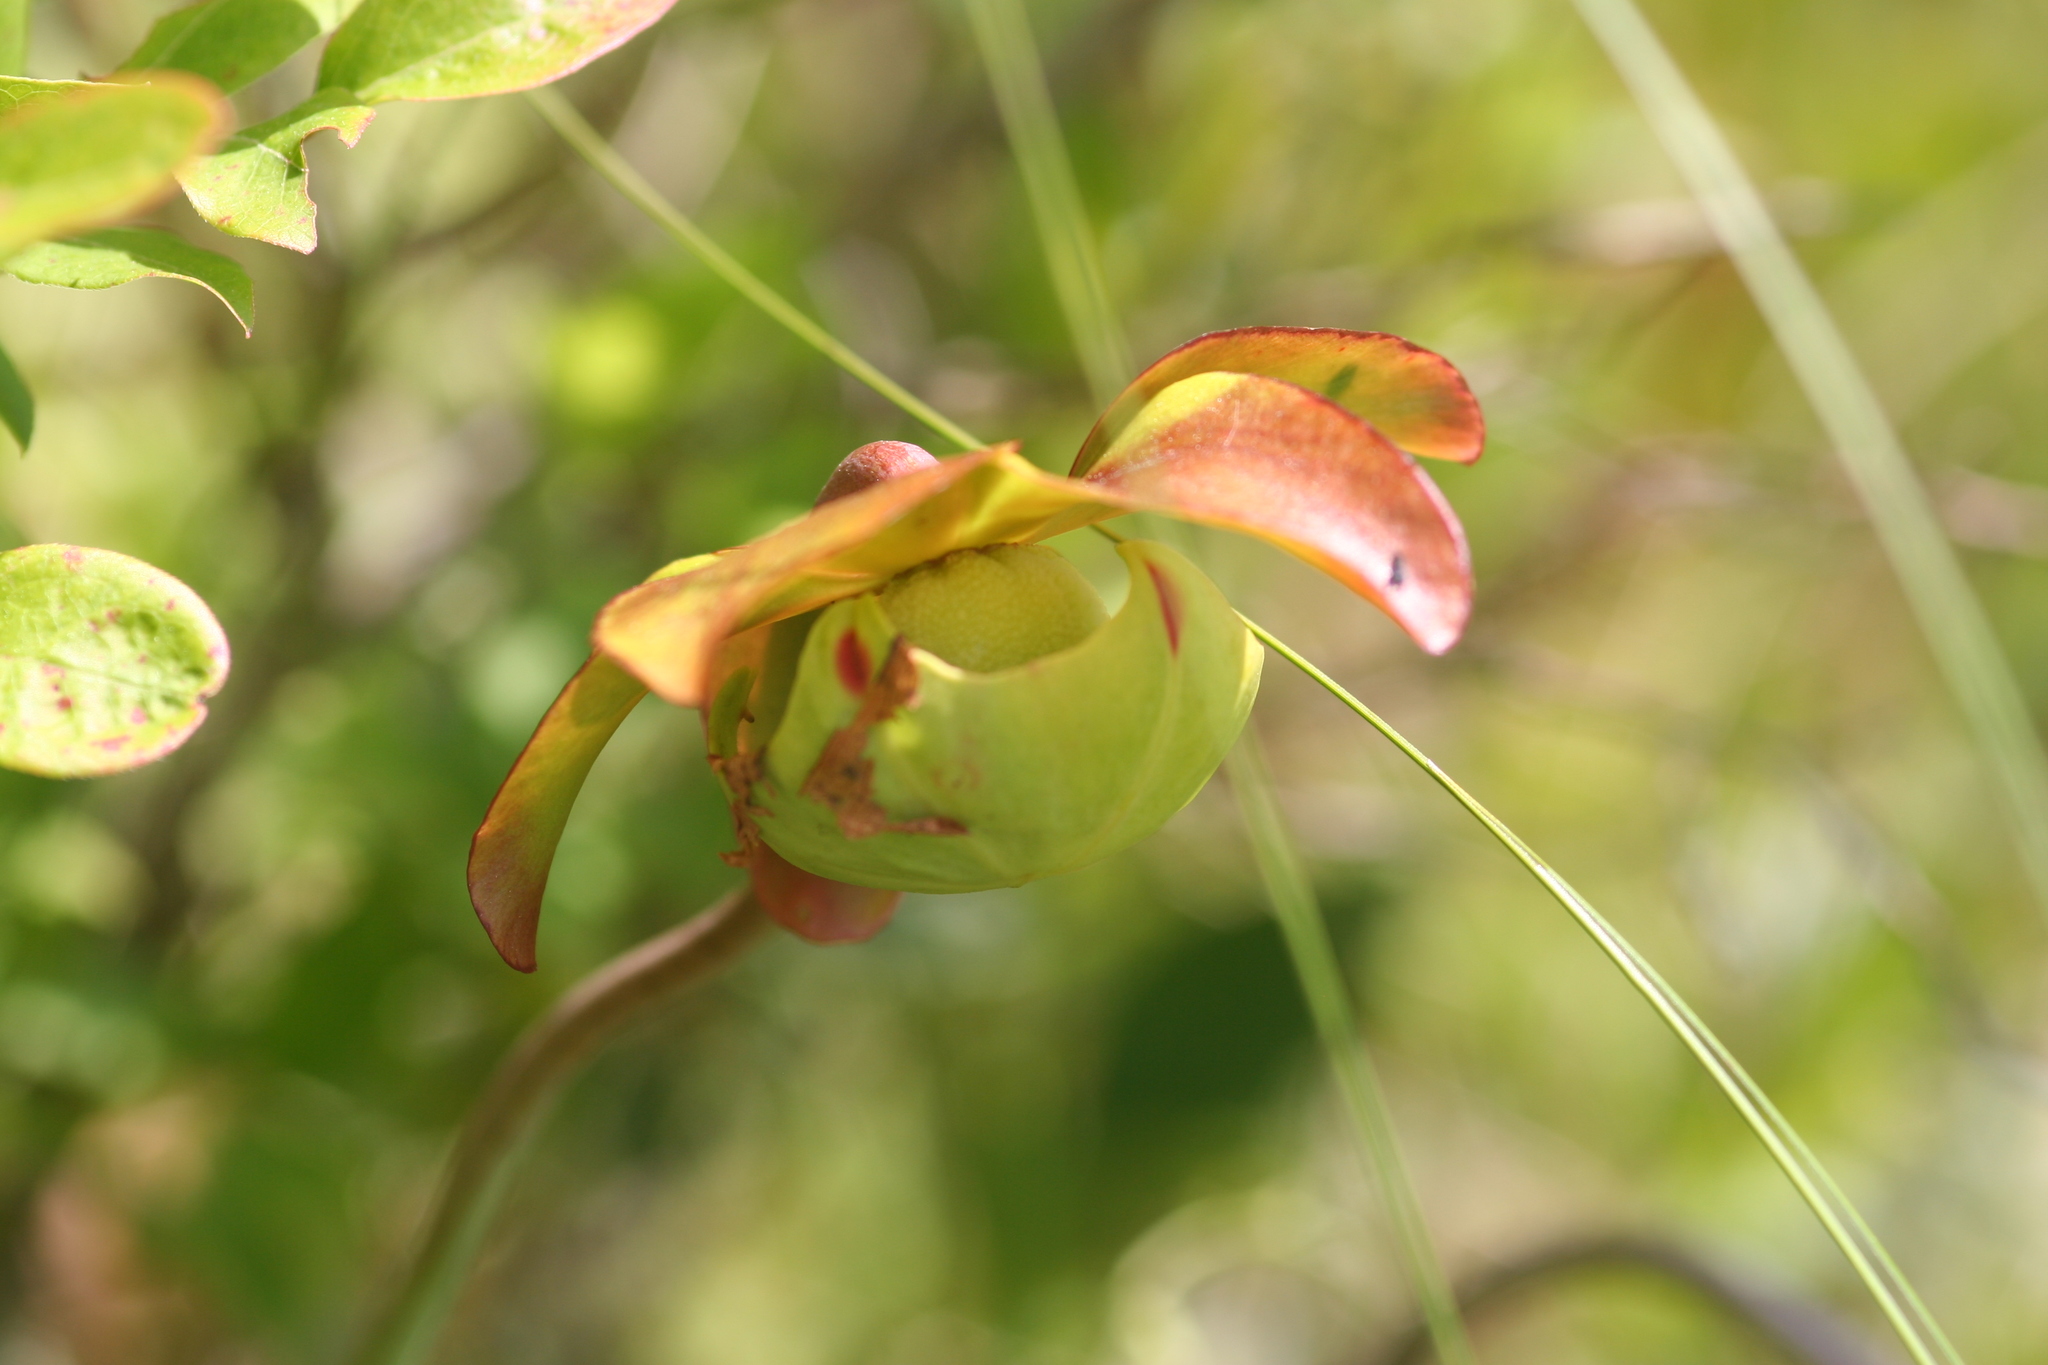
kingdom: Plantae
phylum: Tracheophyta
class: Magnoliopsida
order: Ericales
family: Sarraceniaceae
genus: Sarracenia
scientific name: Sarracenia purpurea
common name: Pitcherplant
